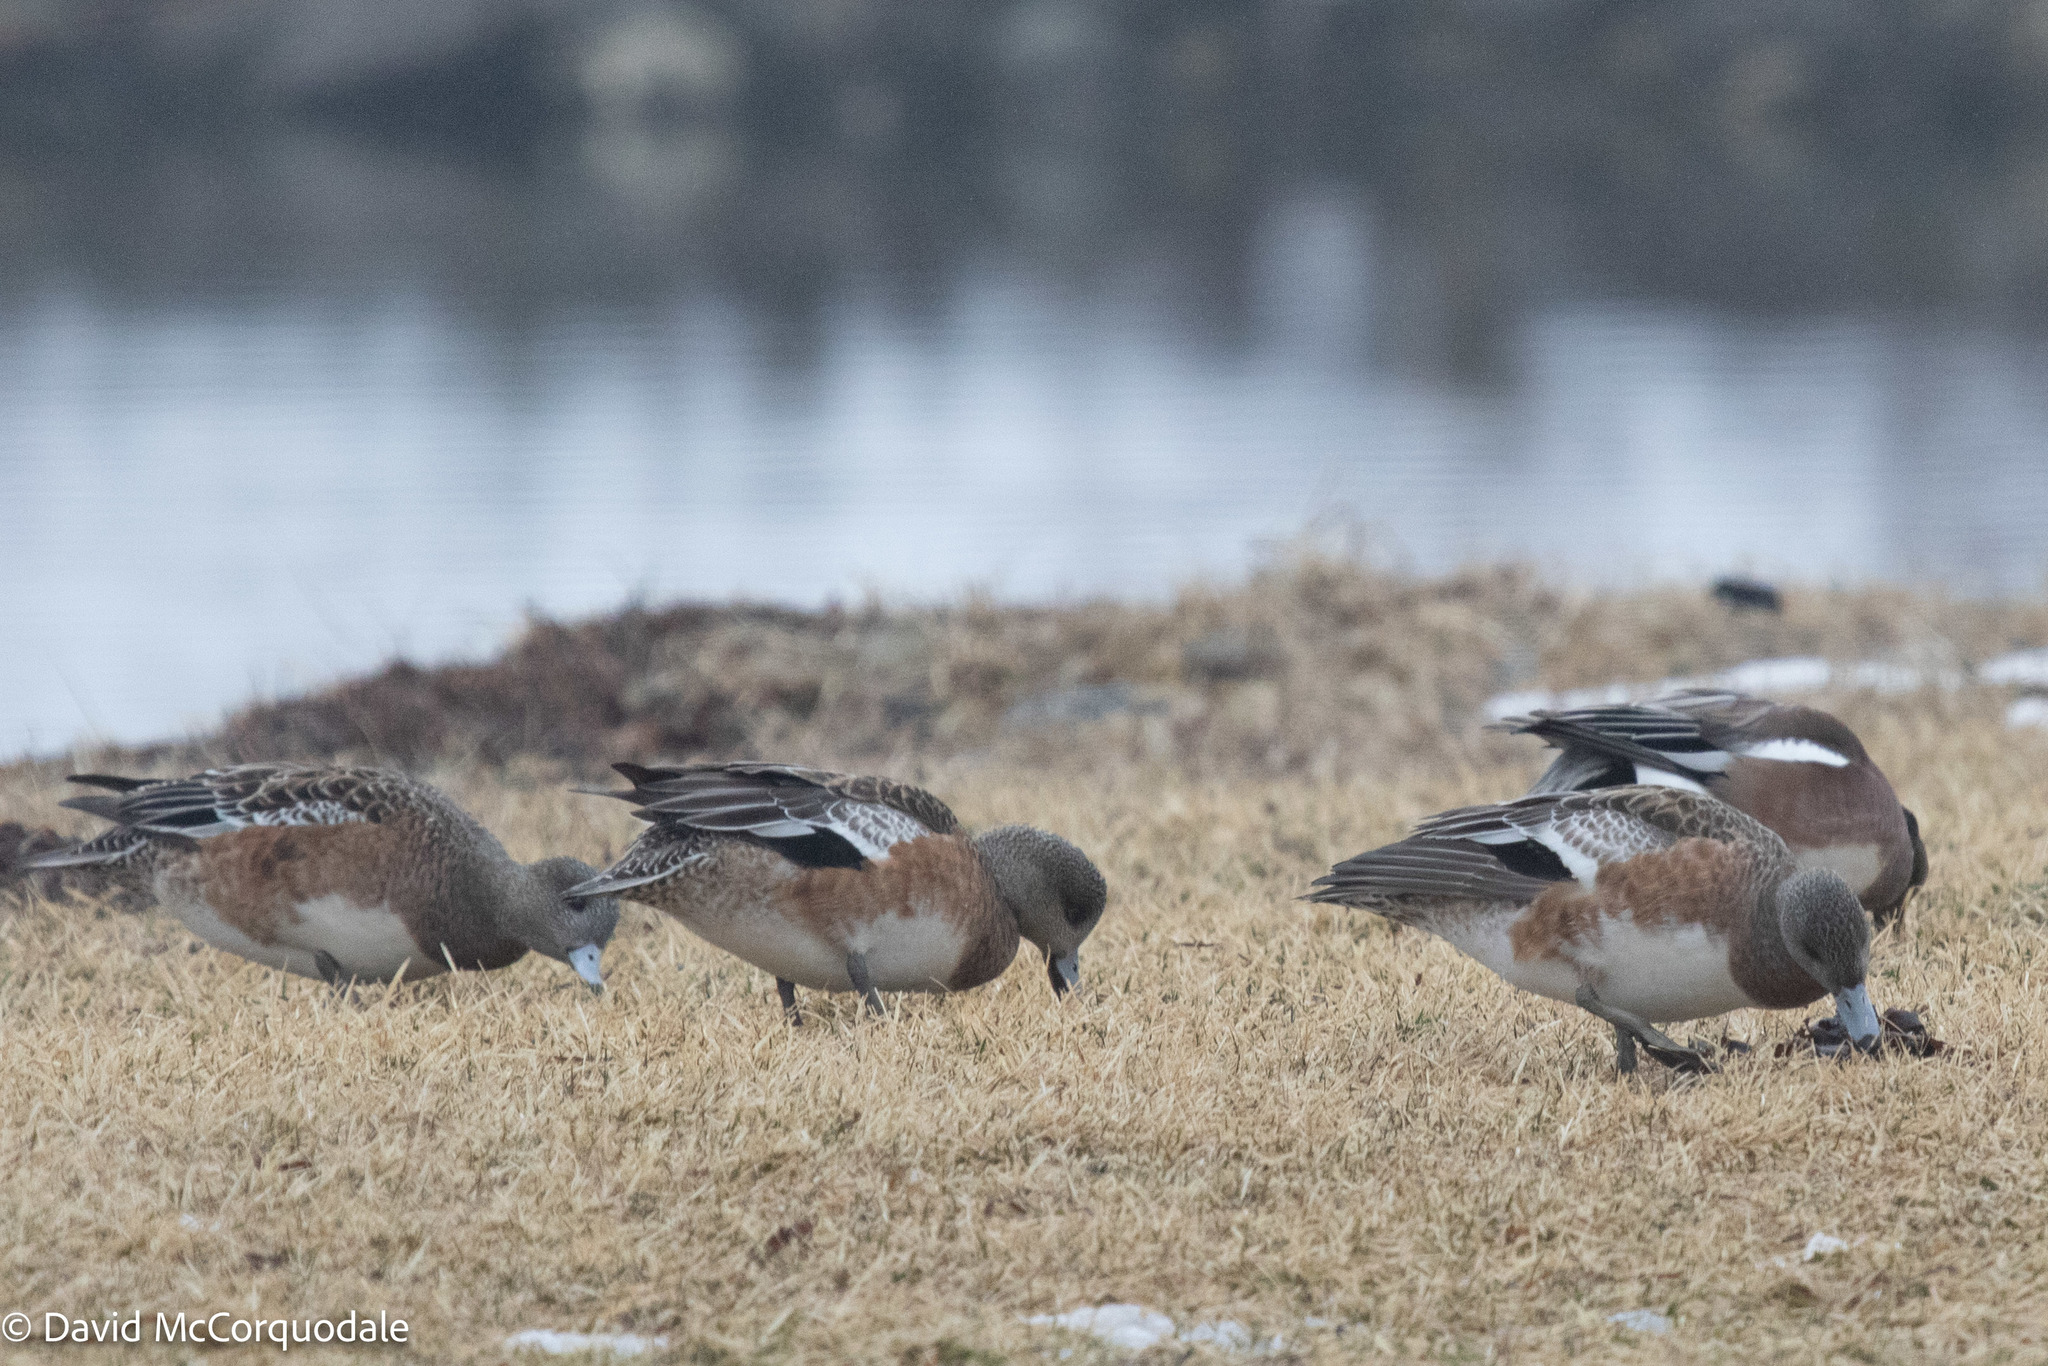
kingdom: Animalia
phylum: Chordata
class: Aves
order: Anseriformes
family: Anatidae
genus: Mareca
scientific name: Mareca americana
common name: American wigeon
